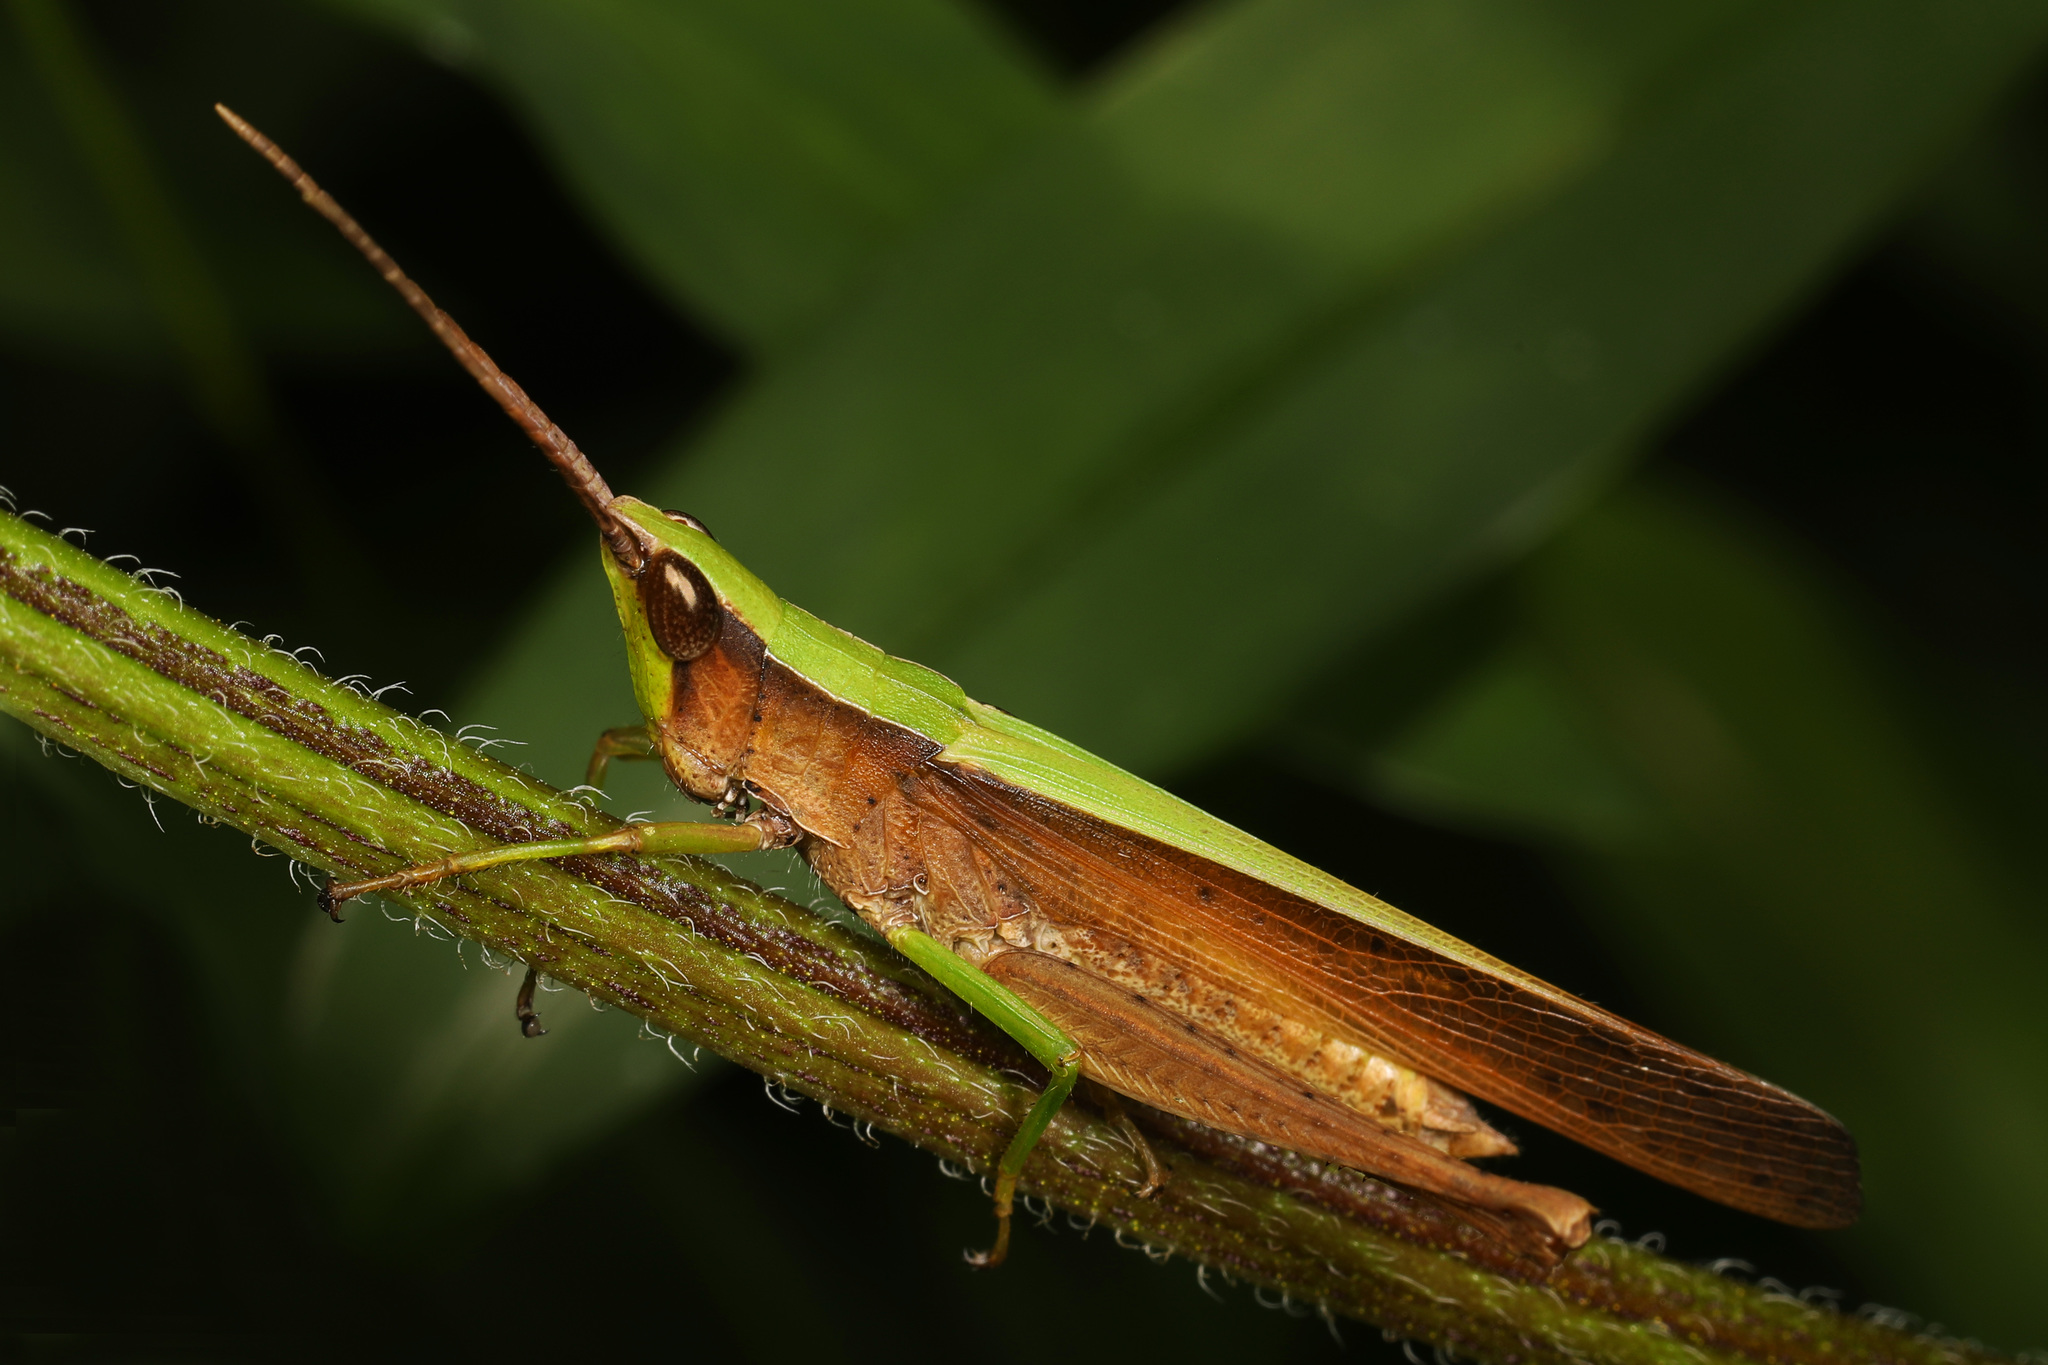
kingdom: Animalia
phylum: Arthropoda
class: Insecta
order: Orthoptera
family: Acrididae
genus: Metaleptea
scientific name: Metaleptea brevicornis
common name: Clipped-wing grasshopper
